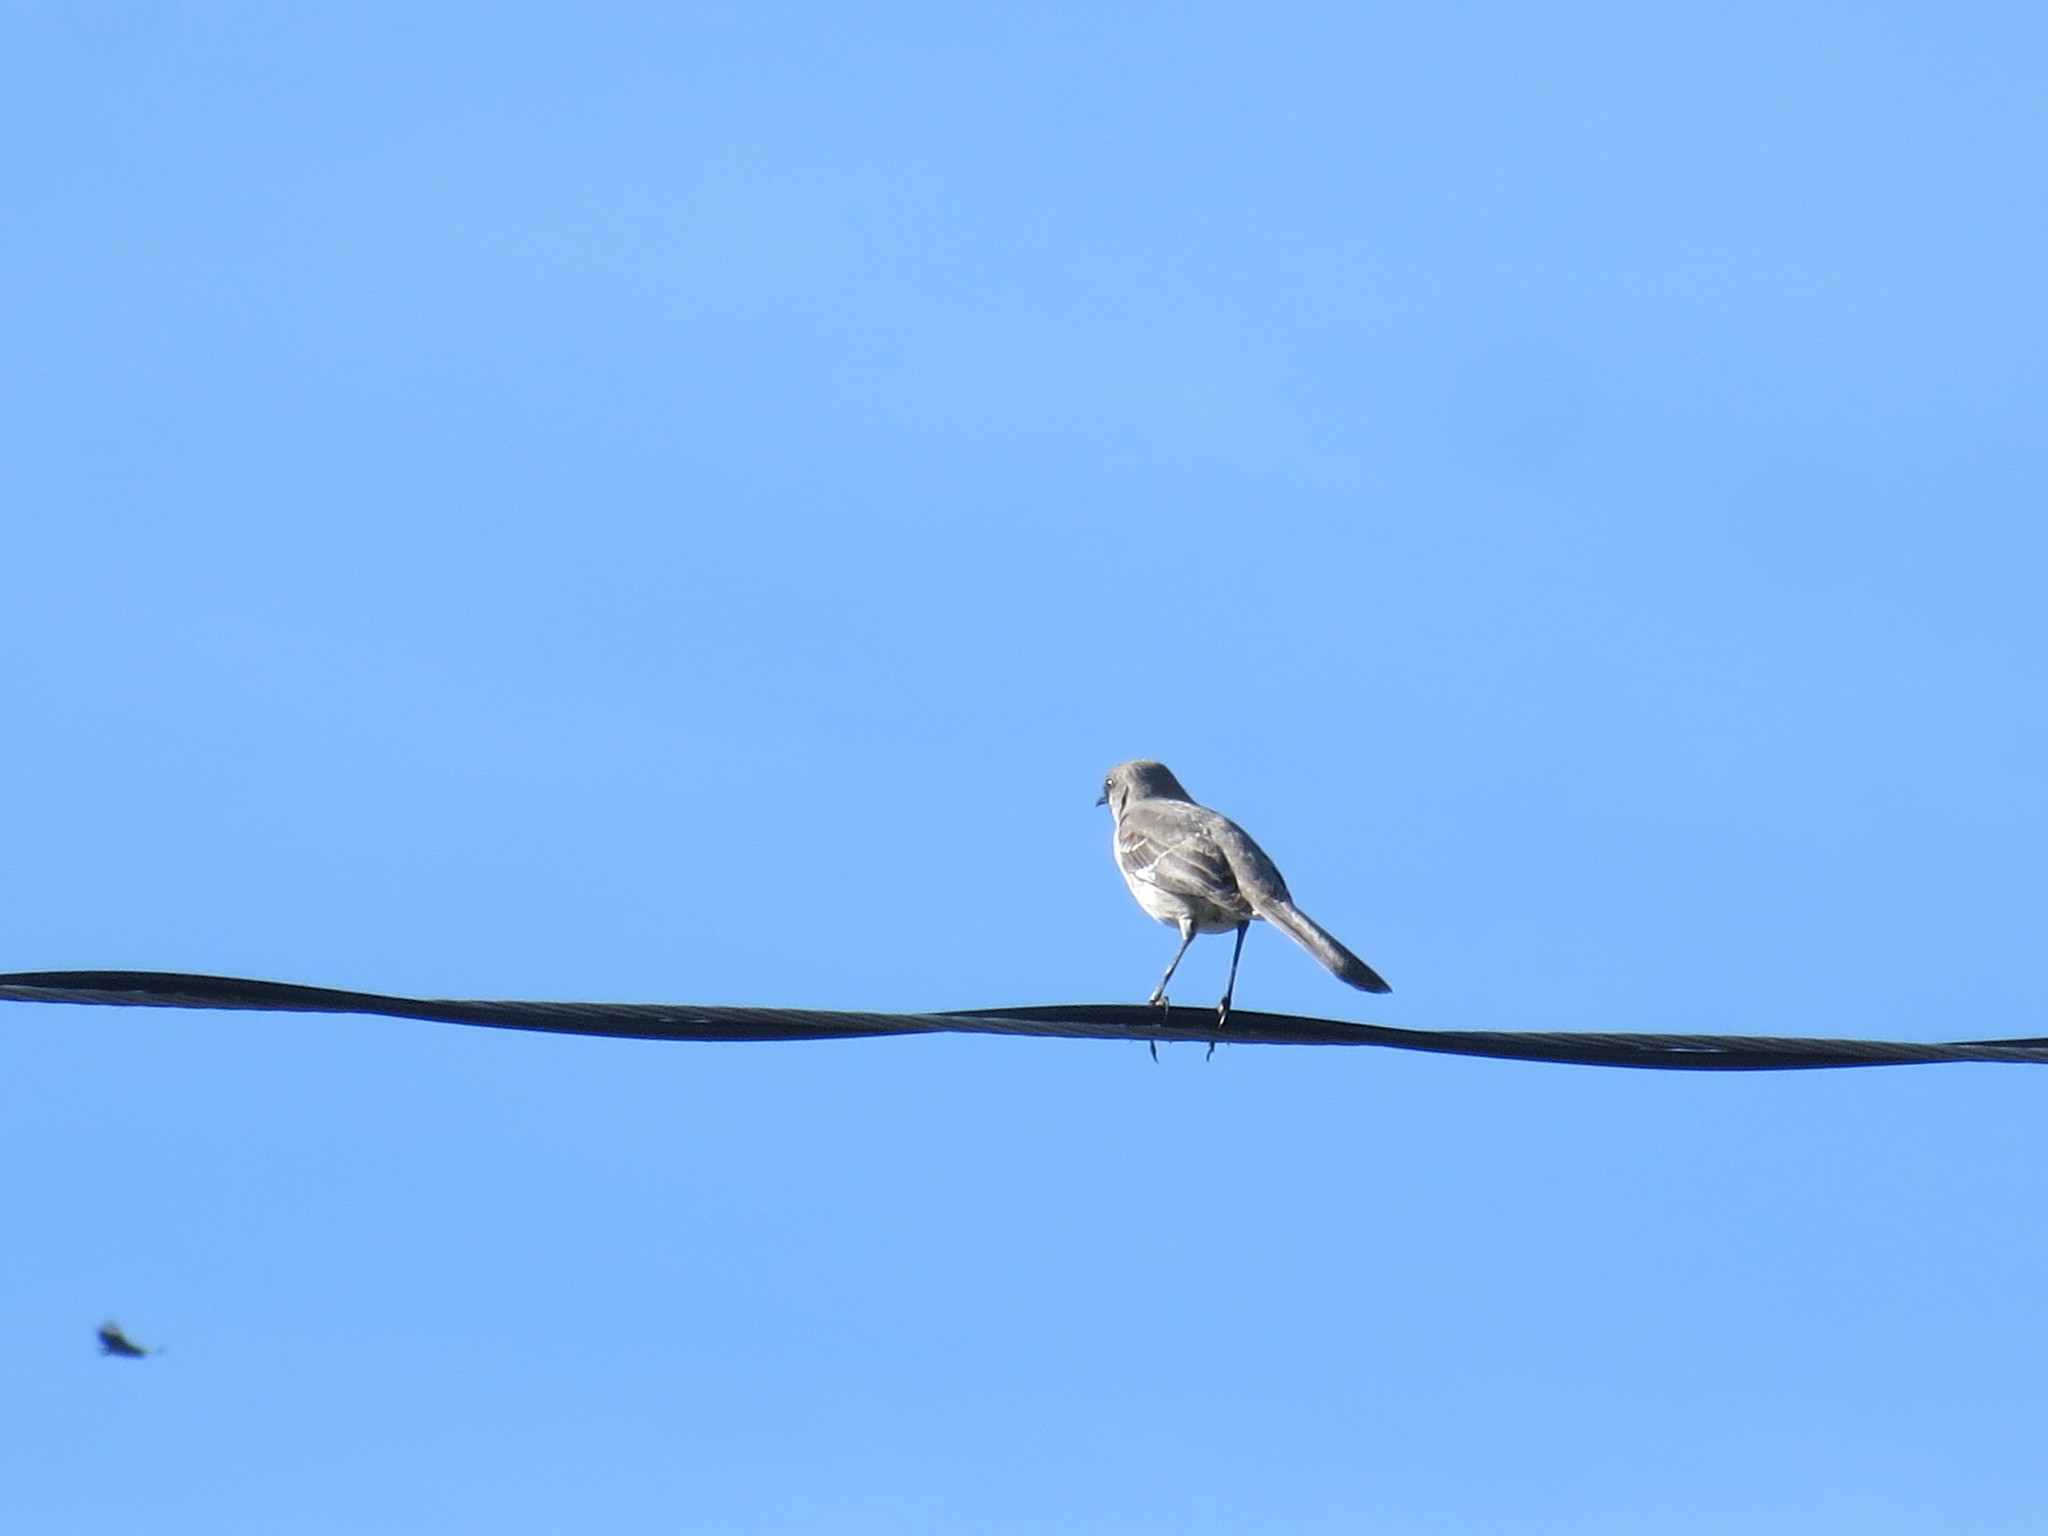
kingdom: Animalia
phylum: Chordata
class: Aves
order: Passeriformes
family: Mimidae
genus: Mimus
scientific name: Mimus polyglottos
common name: Northern mockingbird
